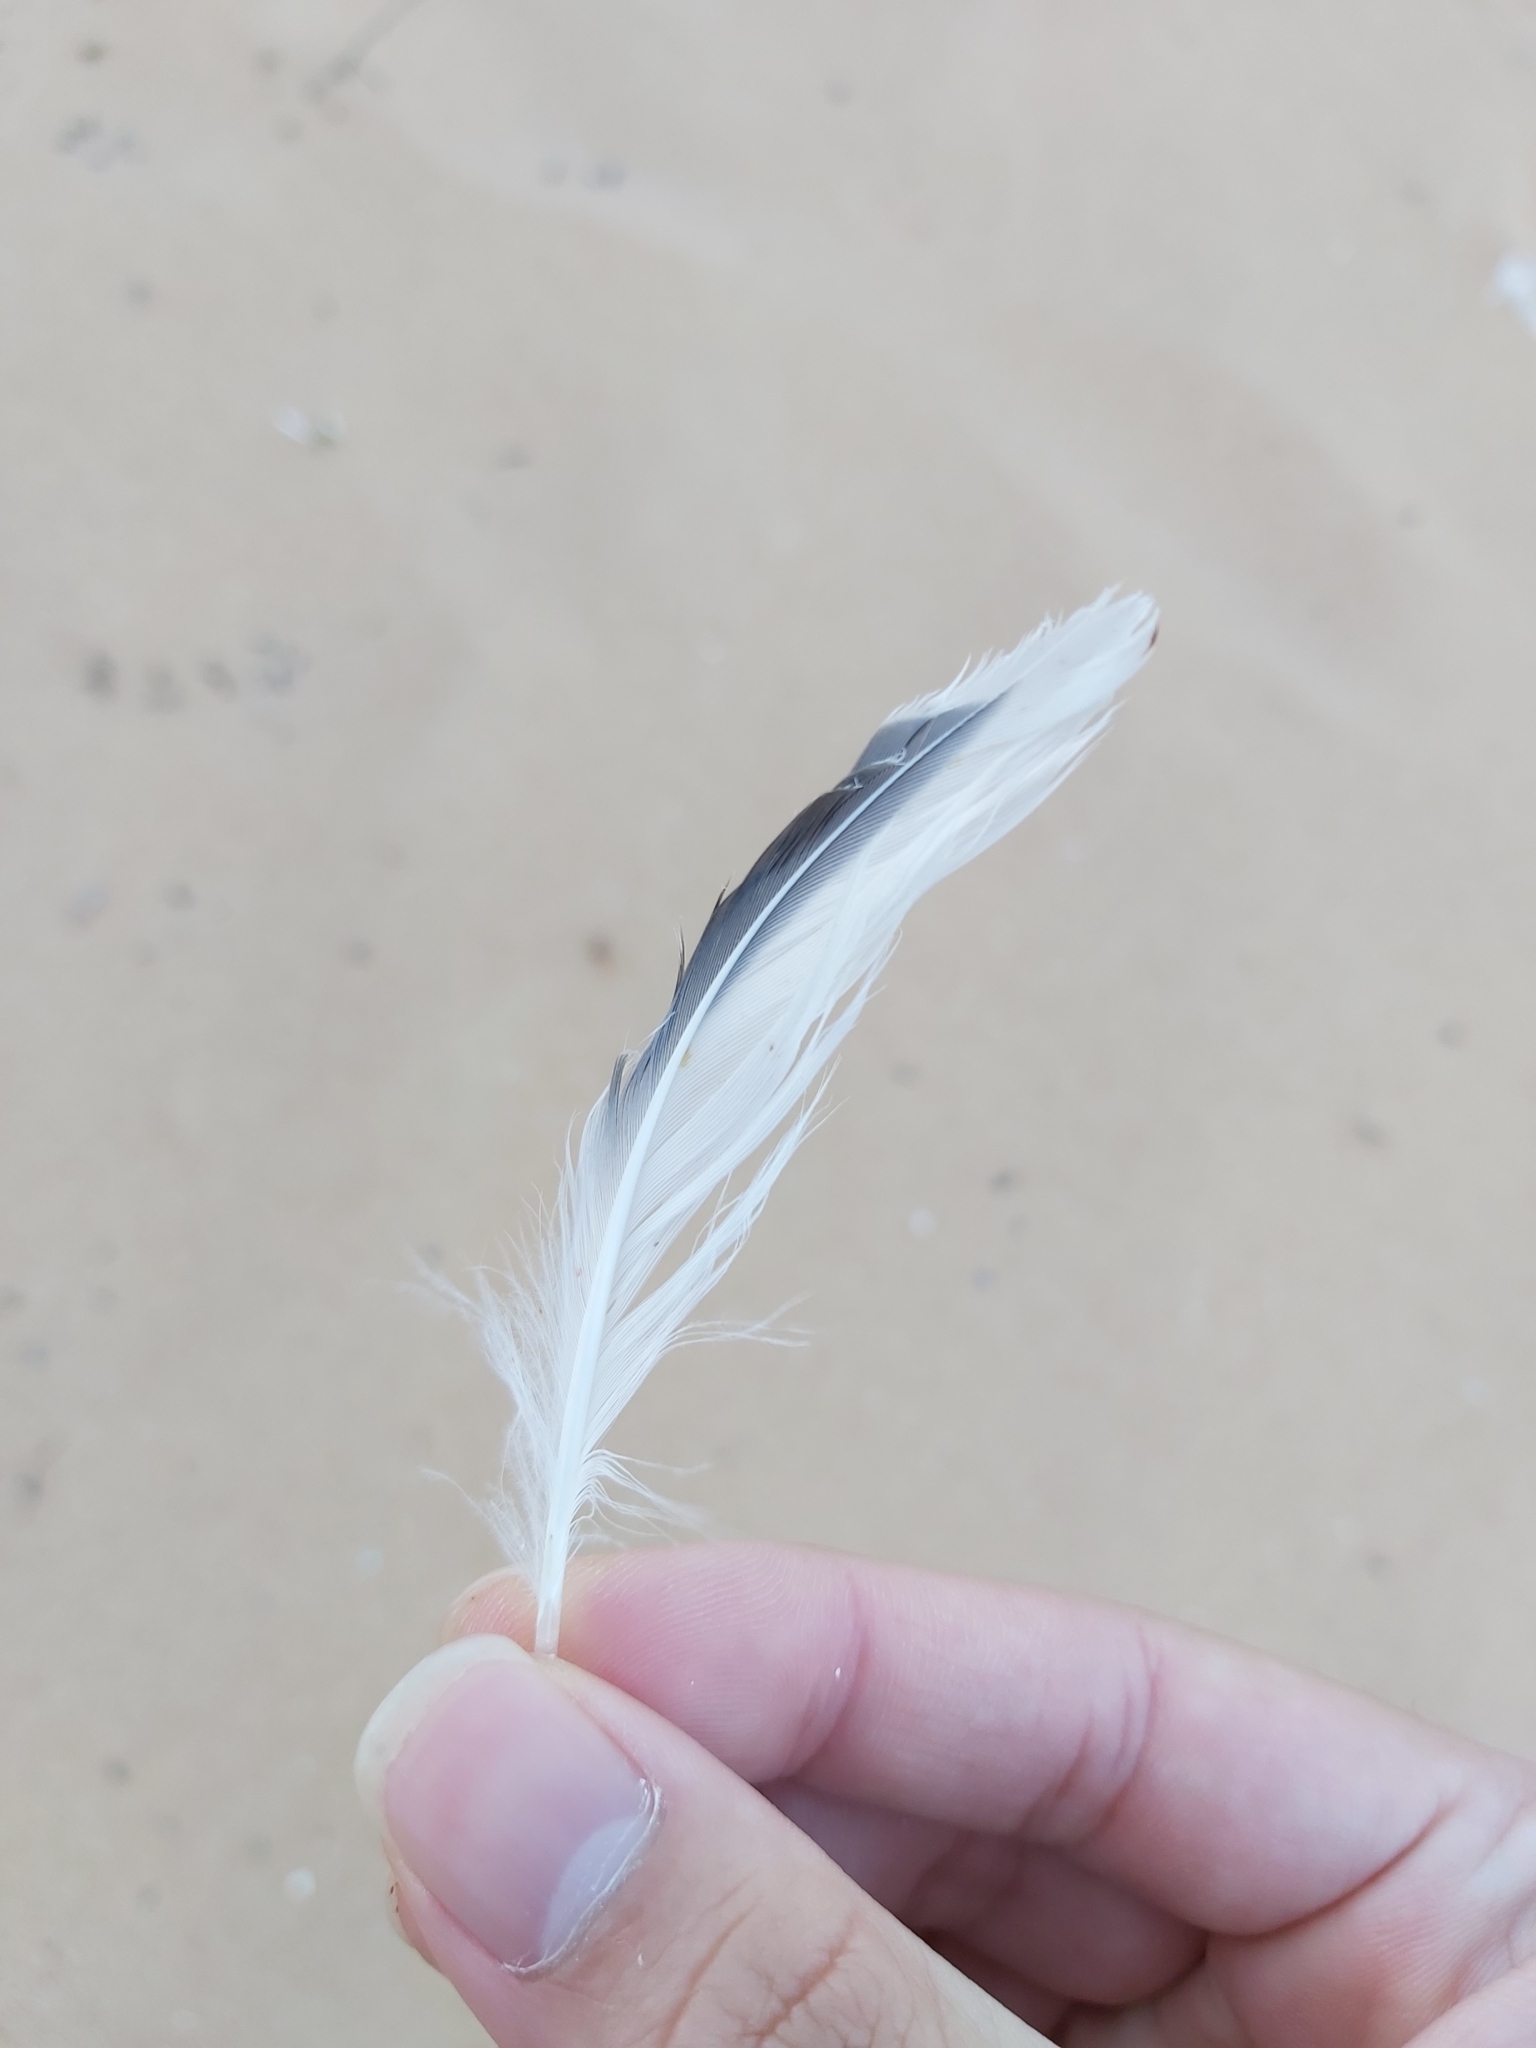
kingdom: Animalia
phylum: Chordata
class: Aves
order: Charadriiformes
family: Laridae
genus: Thalasseus
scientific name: Thalasseus bergii
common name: Greater crested tern
